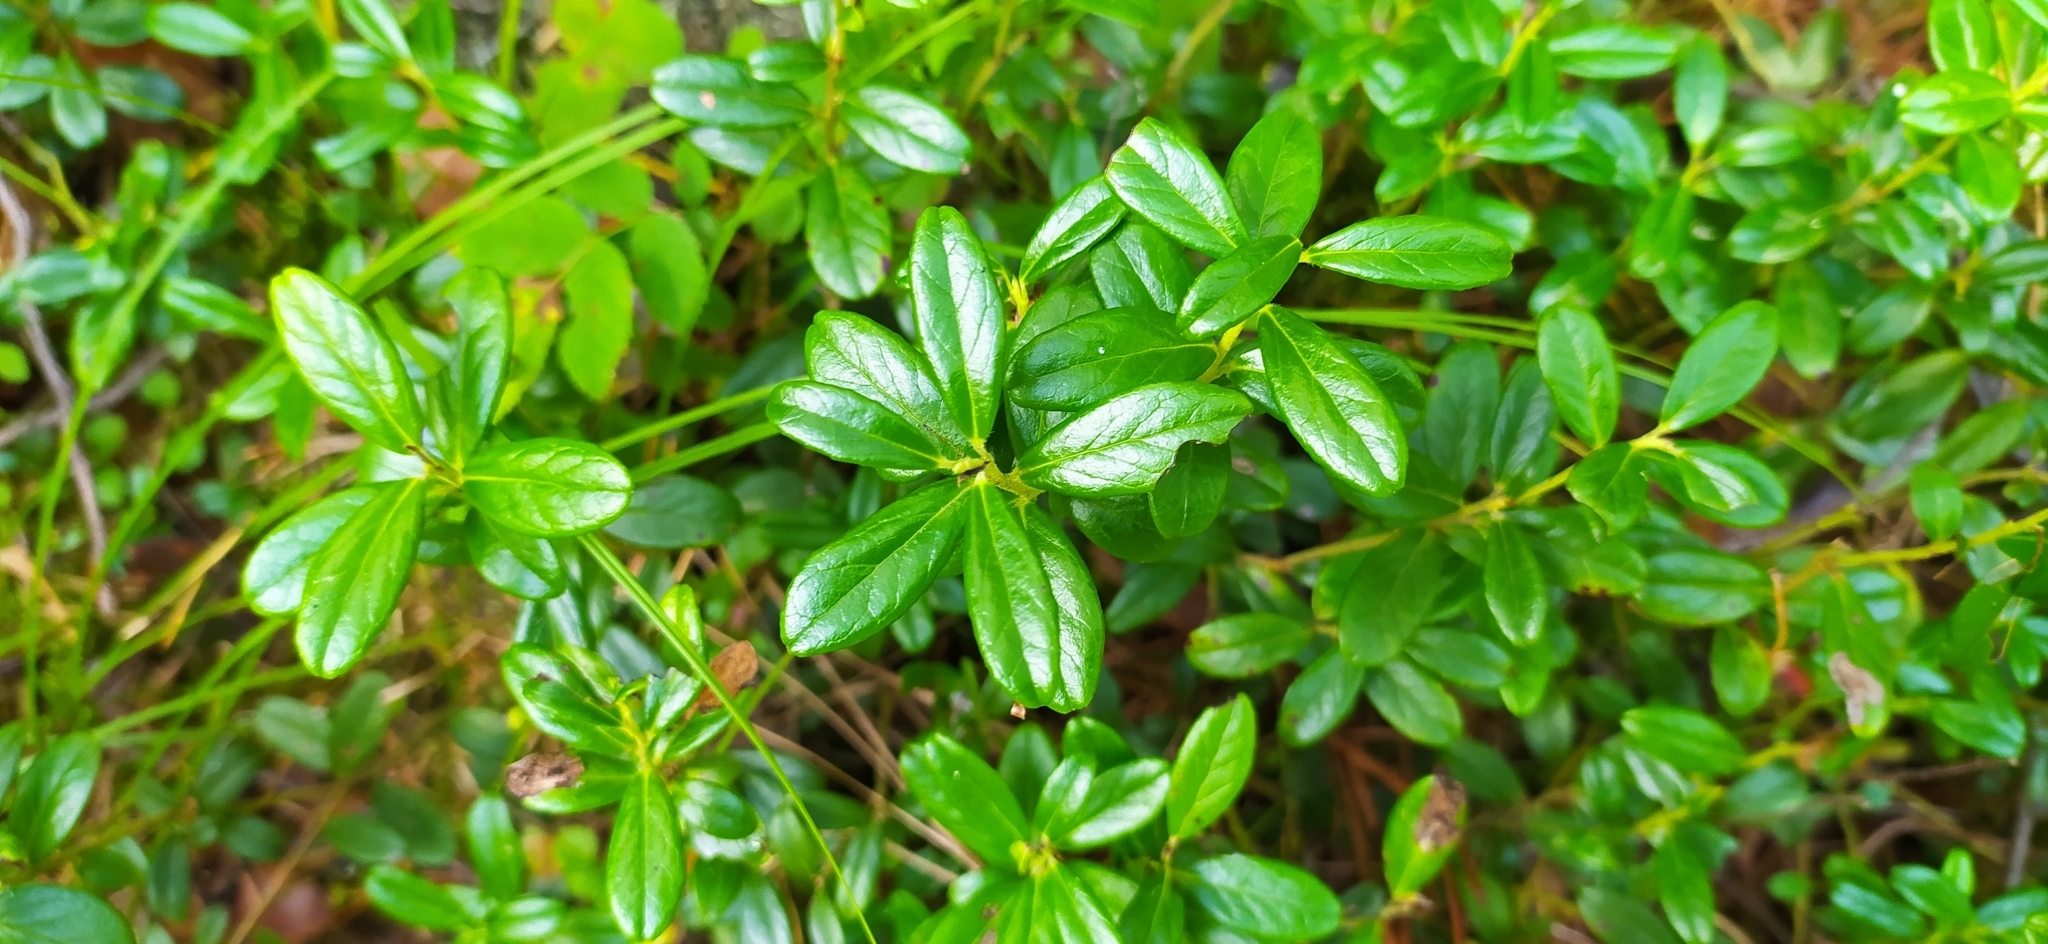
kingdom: Plantae
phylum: Tracheophyta
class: Magnoliopsida
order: Ericales
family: Ericaceae
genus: Vaccinium
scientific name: Vaccinium vitis-idaea
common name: Cowberry
